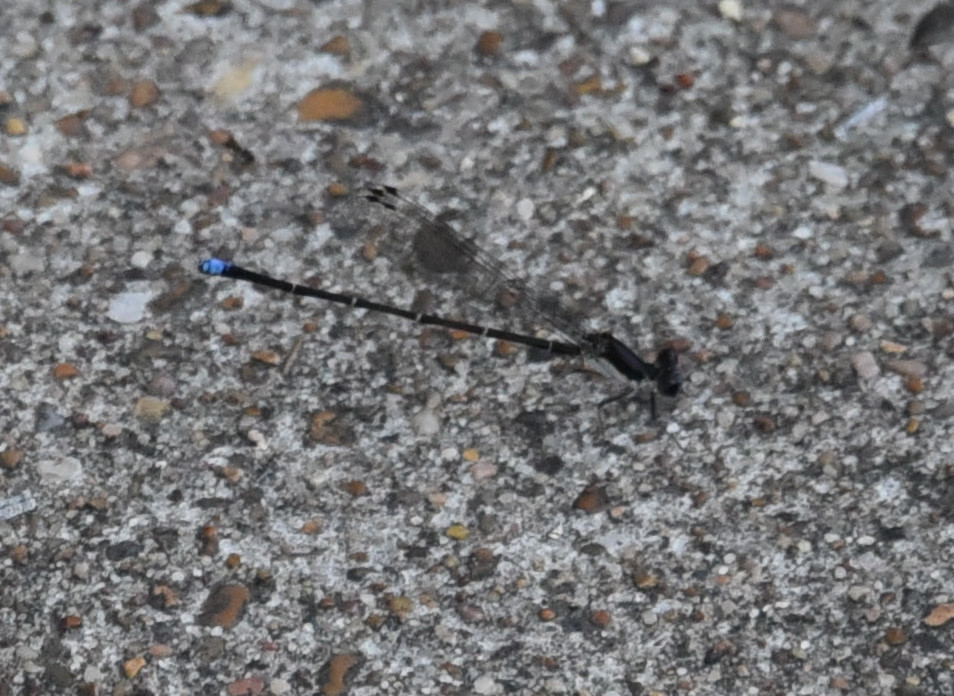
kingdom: Animalia
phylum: Arthropoda
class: Insecta
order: Odonata
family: Coenagrionidae
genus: Argia
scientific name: Argia tibialis
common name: Blue-tipped dancer
